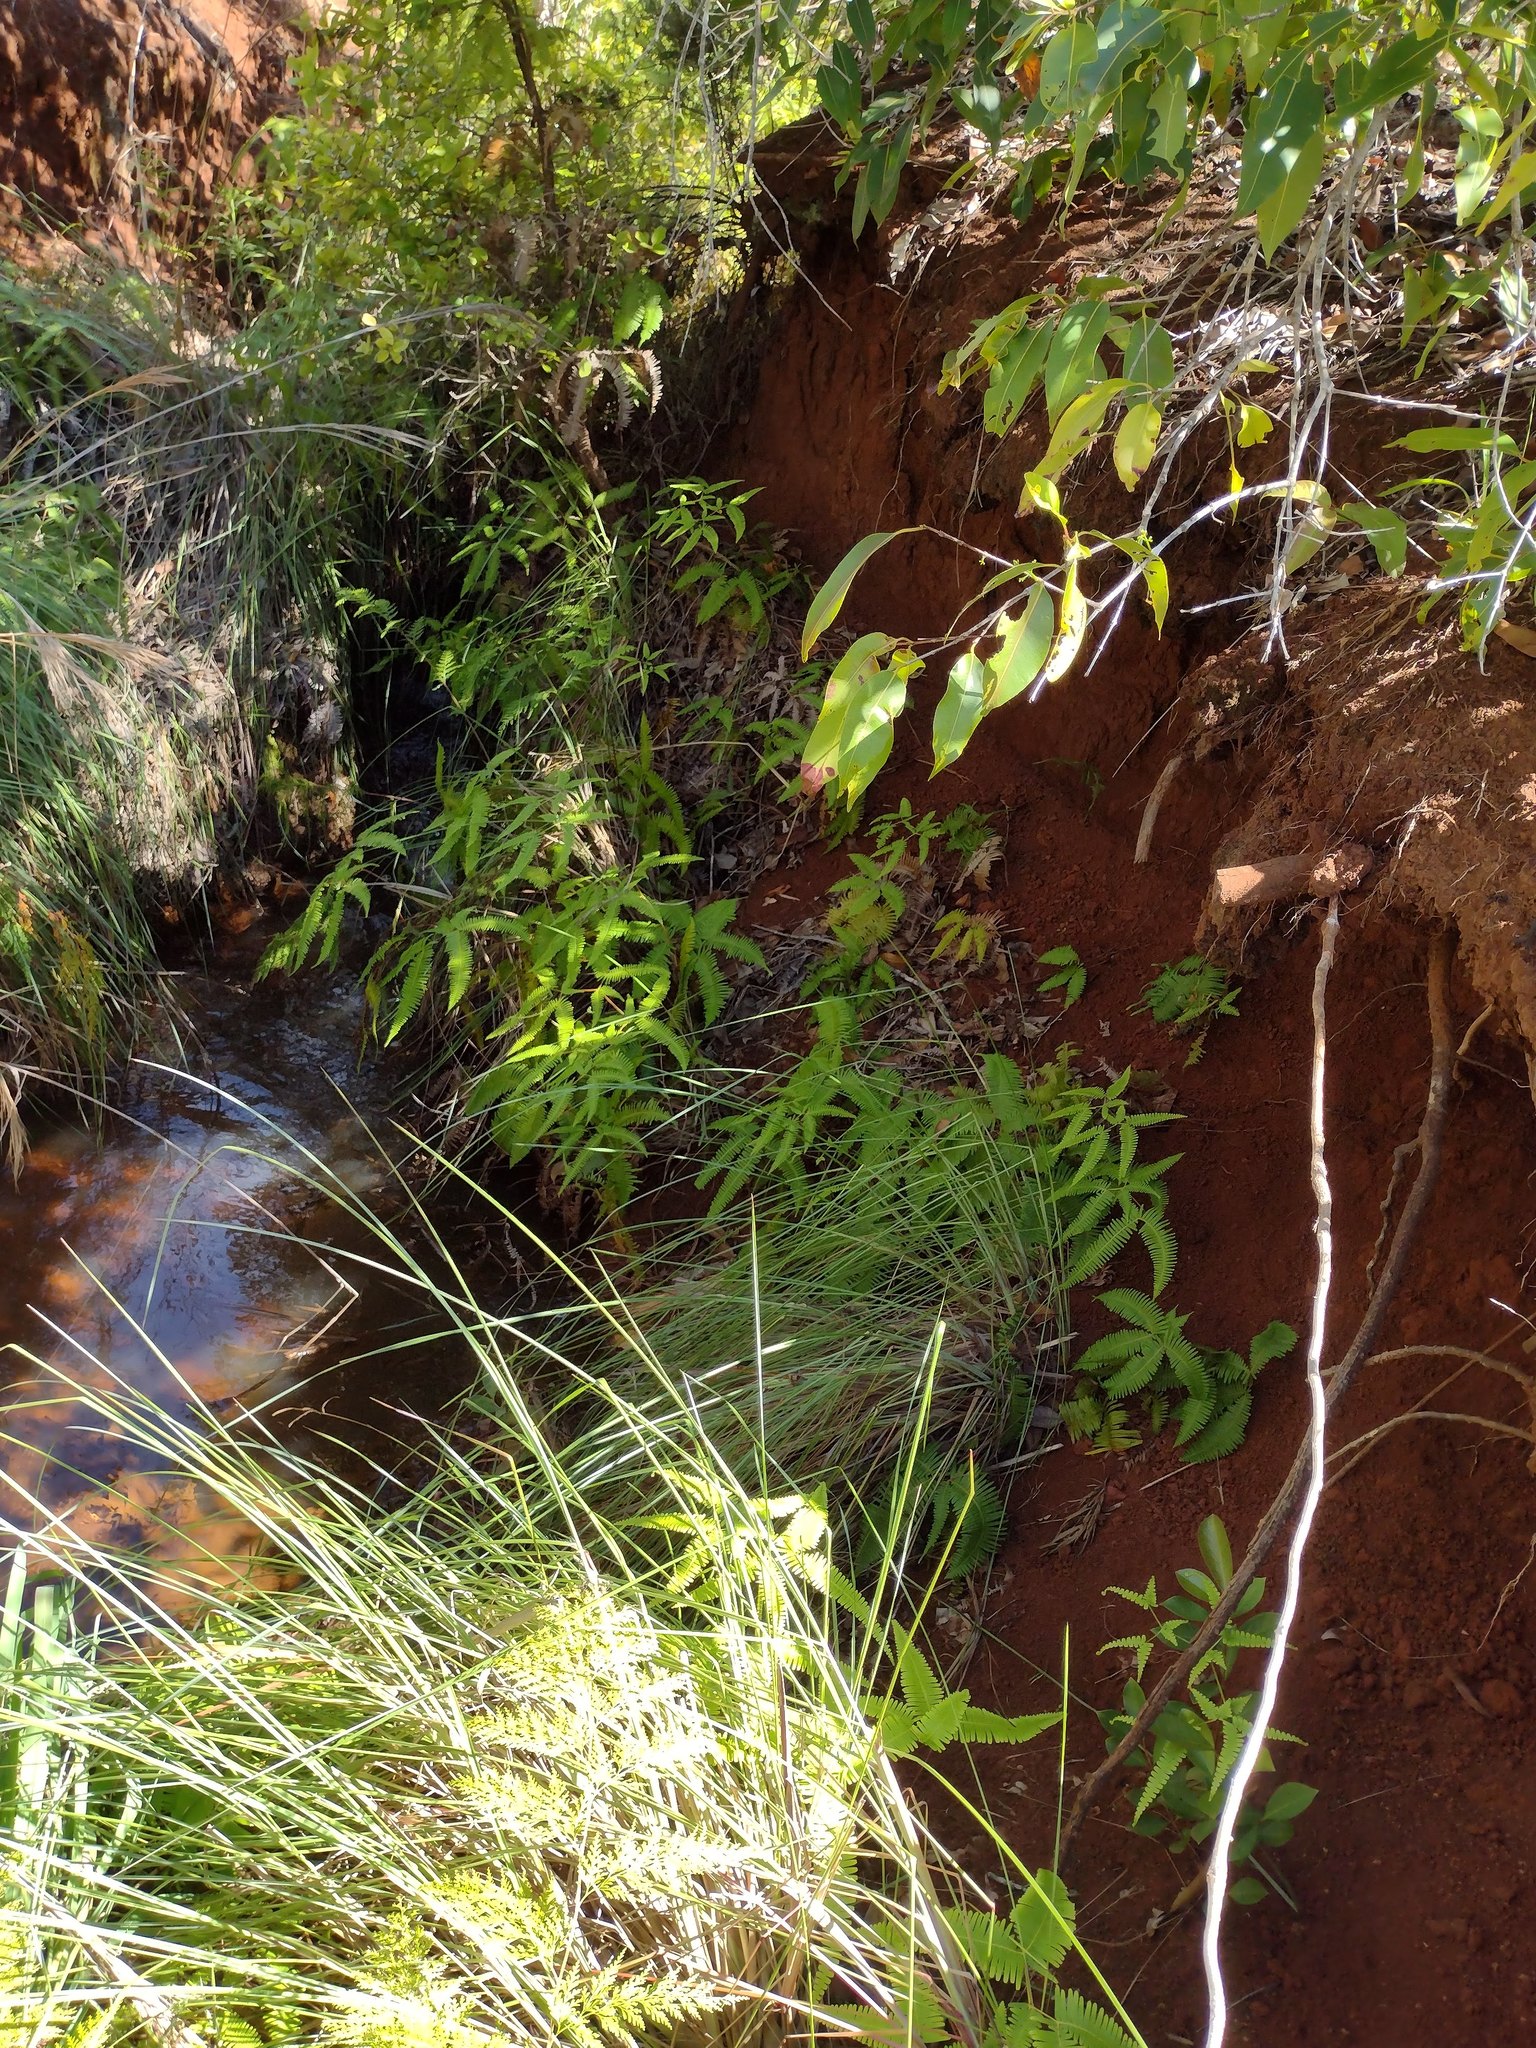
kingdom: Plantae
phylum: Tracheophyta
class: Polypodiopsida
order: Gleicheniales
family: Gleicheniaceae
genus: Dicranopteris
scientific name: Dicranopteris linearis
